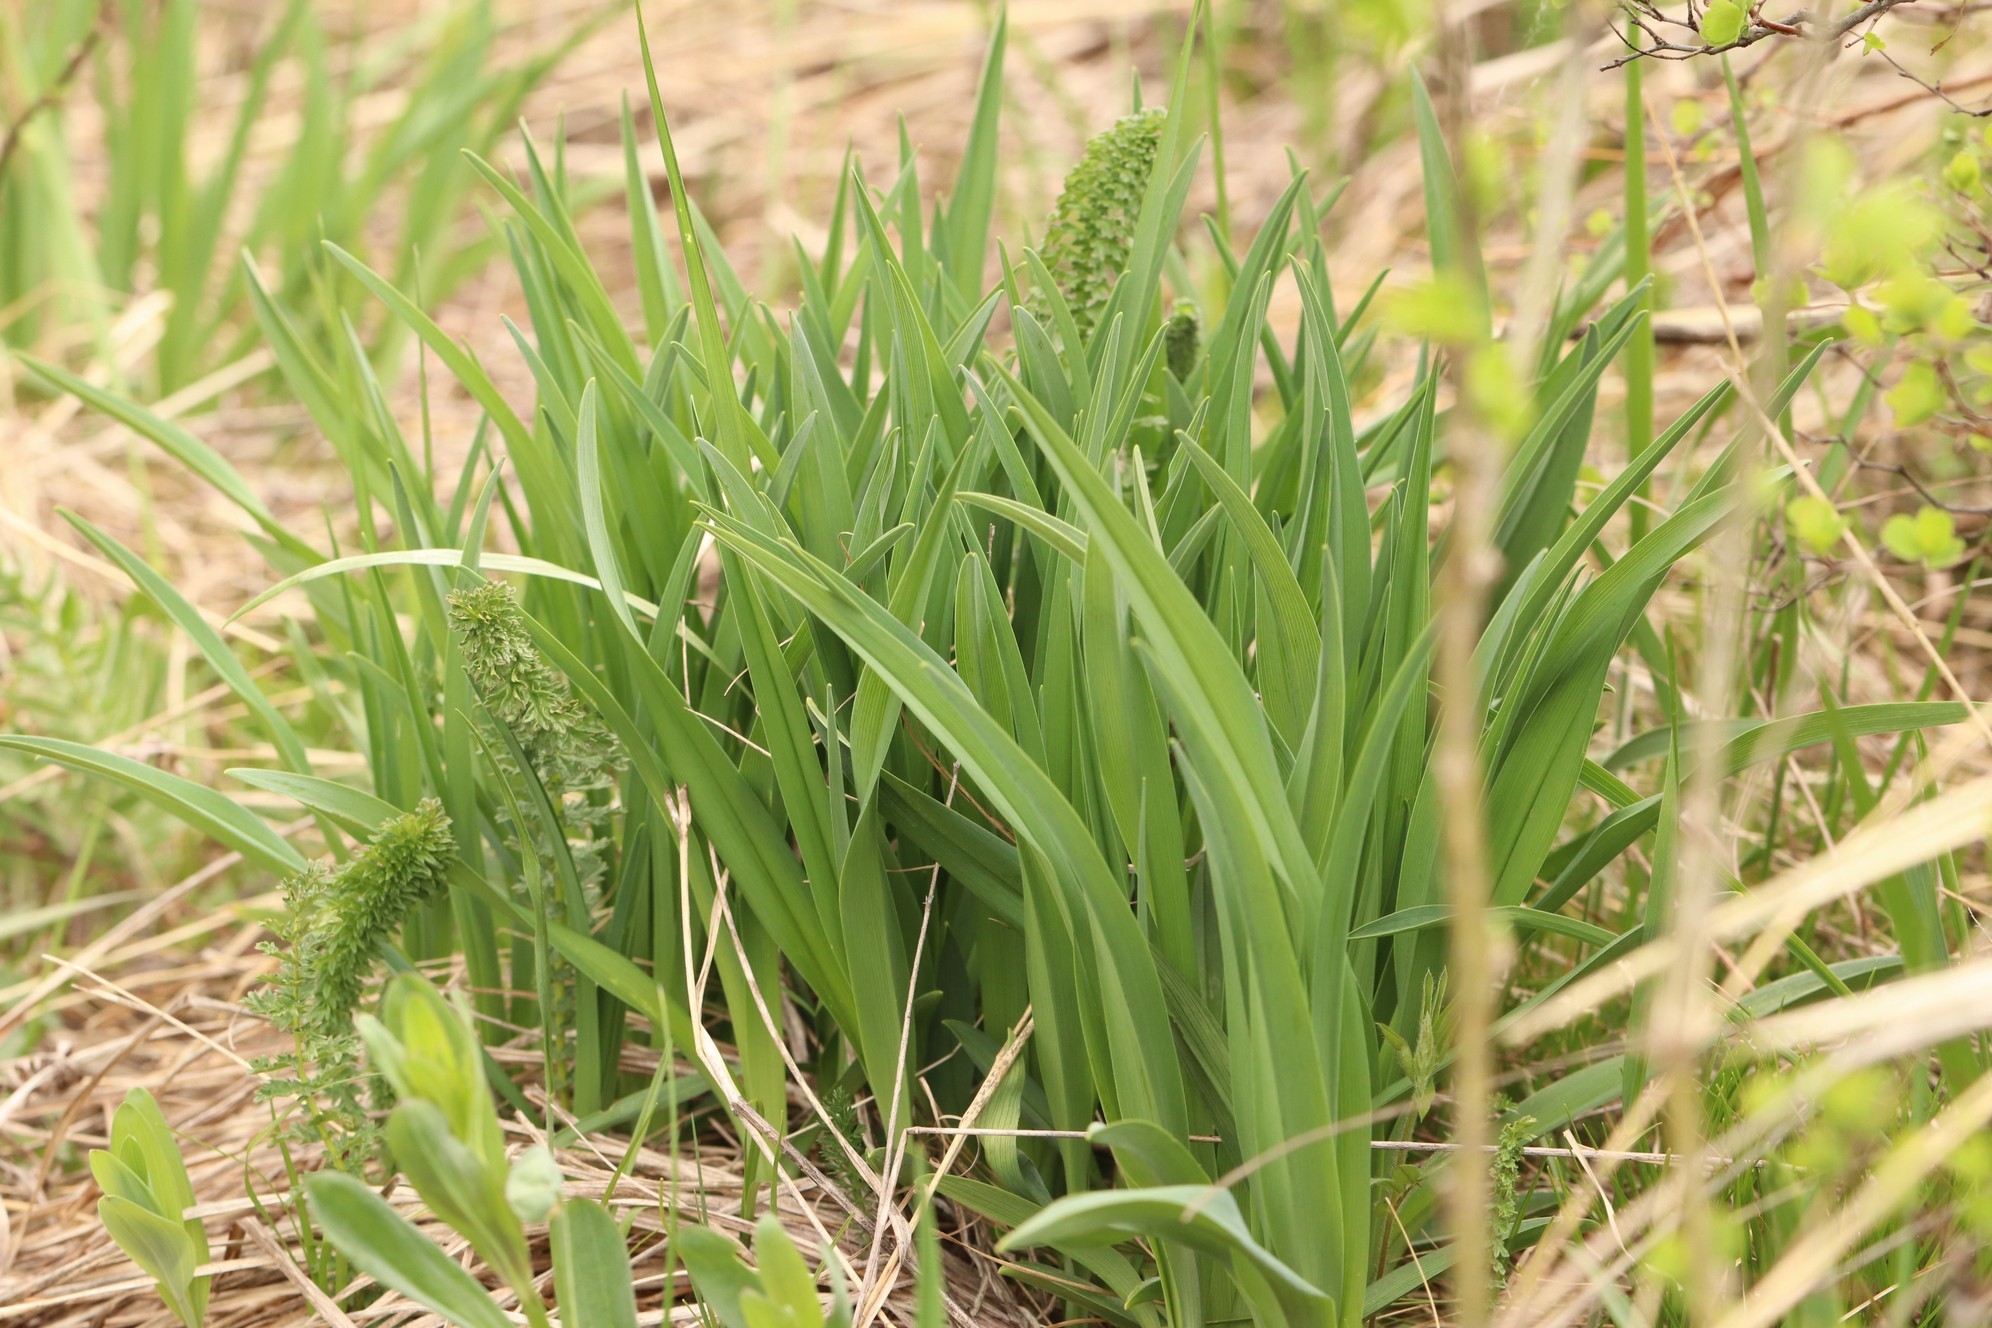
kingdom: Plantae
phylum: Tracheophyta
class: Liliopsida
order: Asparagales
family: Asphodelaceae
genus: Hemerocallis
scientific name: Hemerocallis minor
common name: Small daylily
